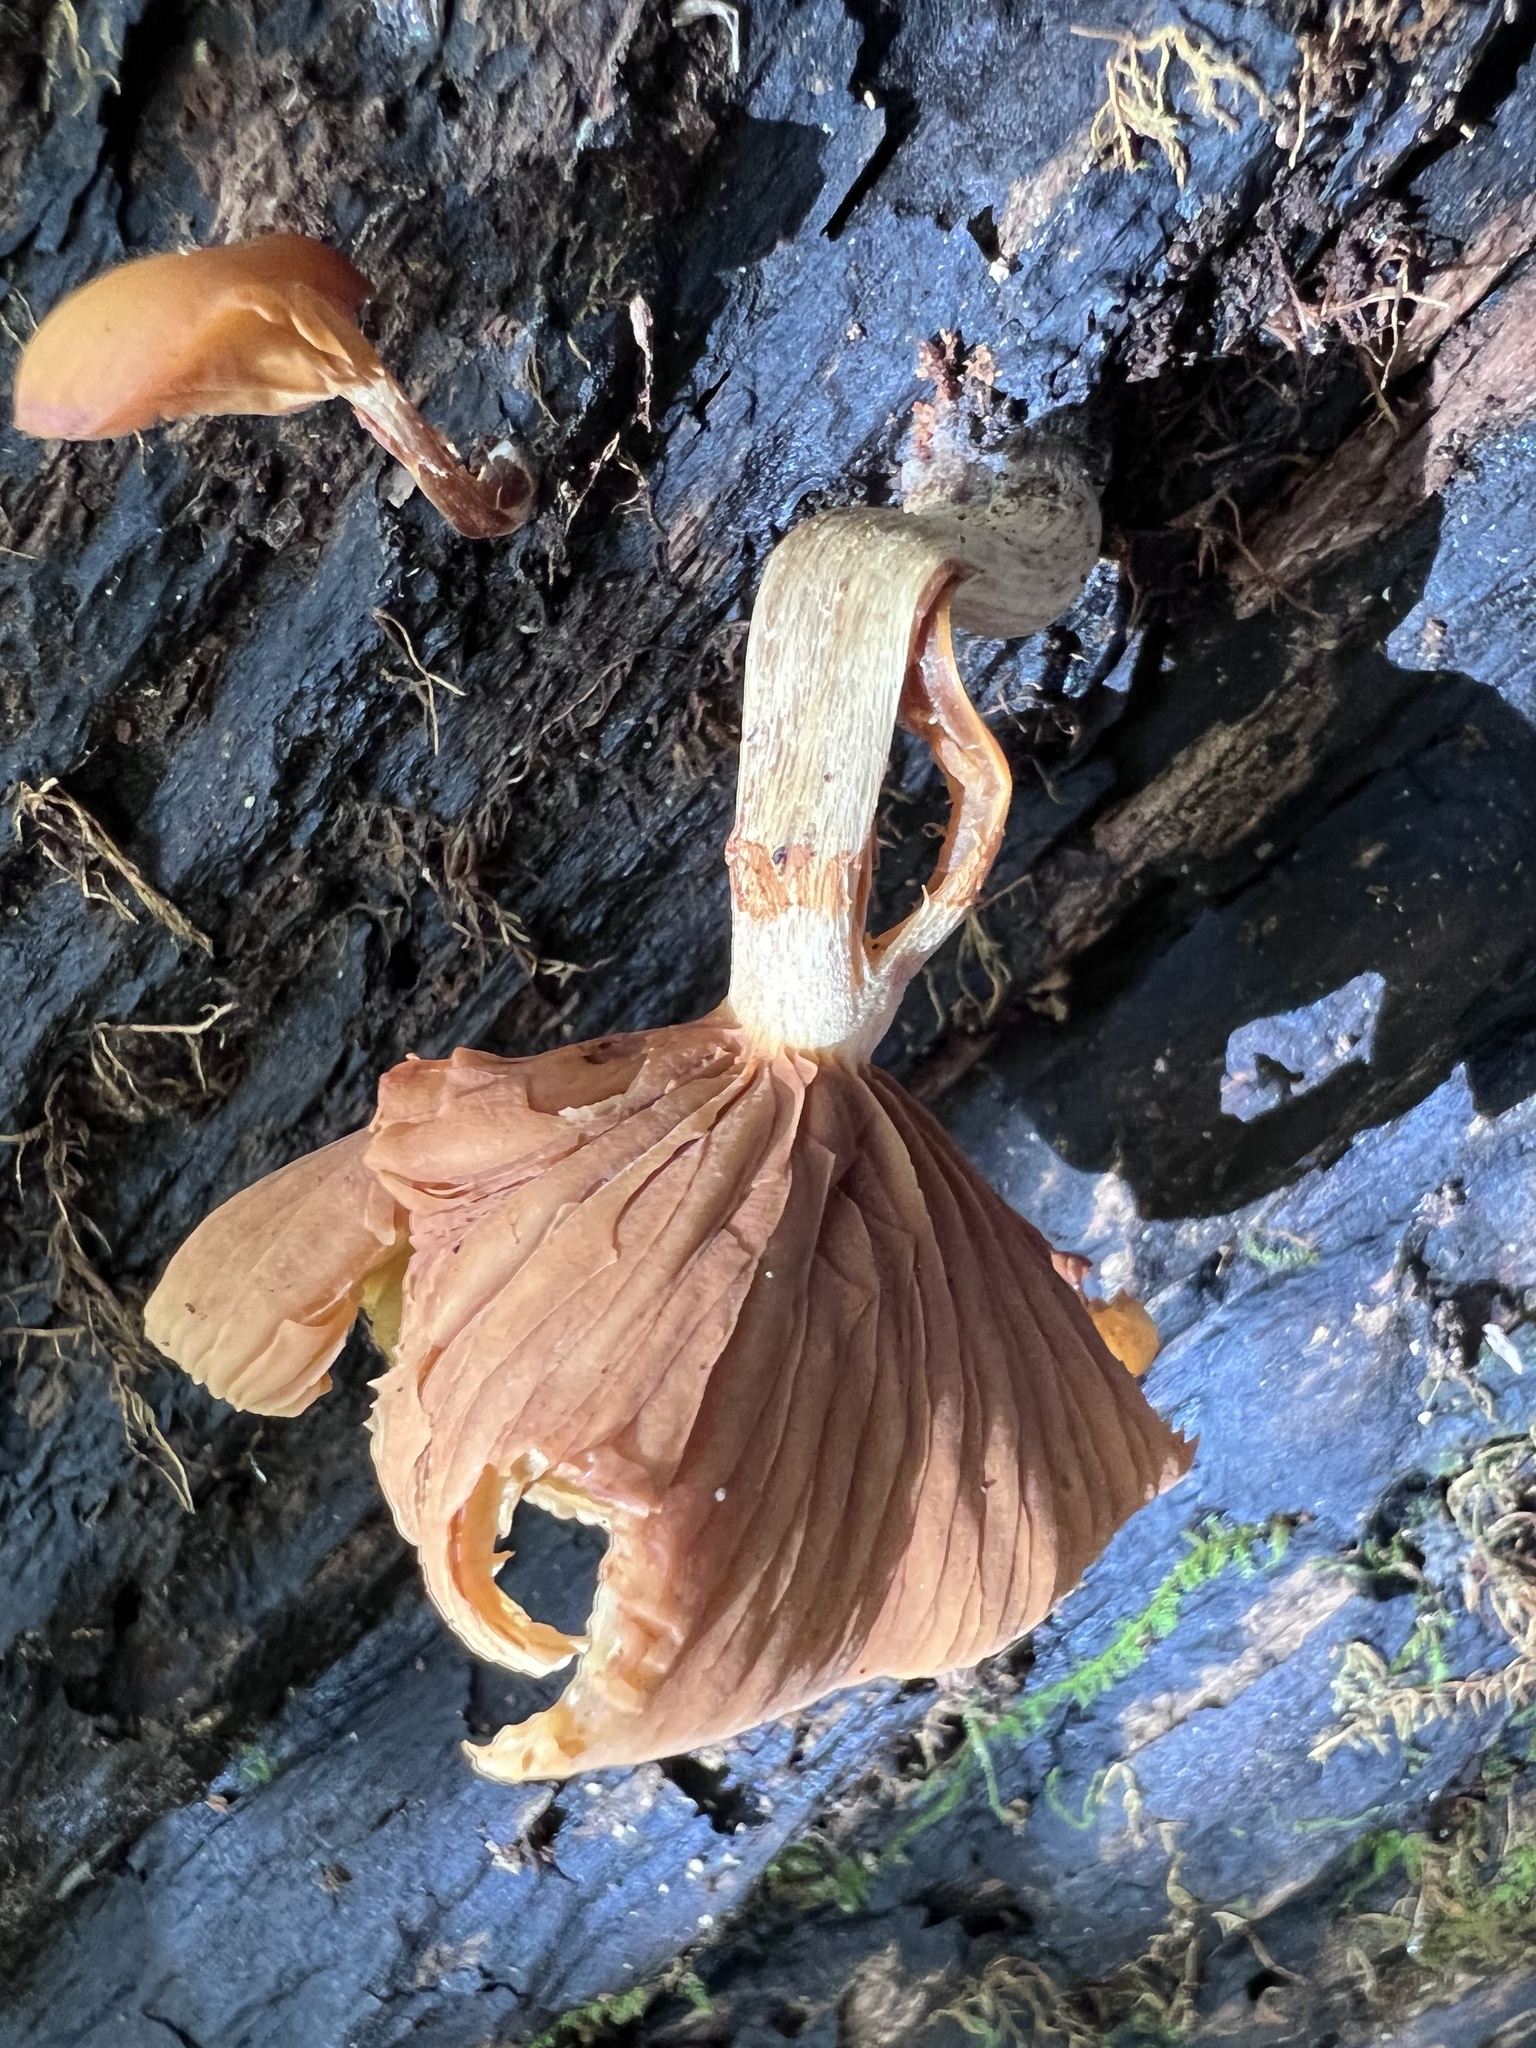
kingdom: Fungi
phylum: Basidiomycota
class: Agaricomycetes
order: Agaricales
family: Hymenogastraceae
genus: Galerina
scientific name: Galerina marginata
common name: Funeral bell
